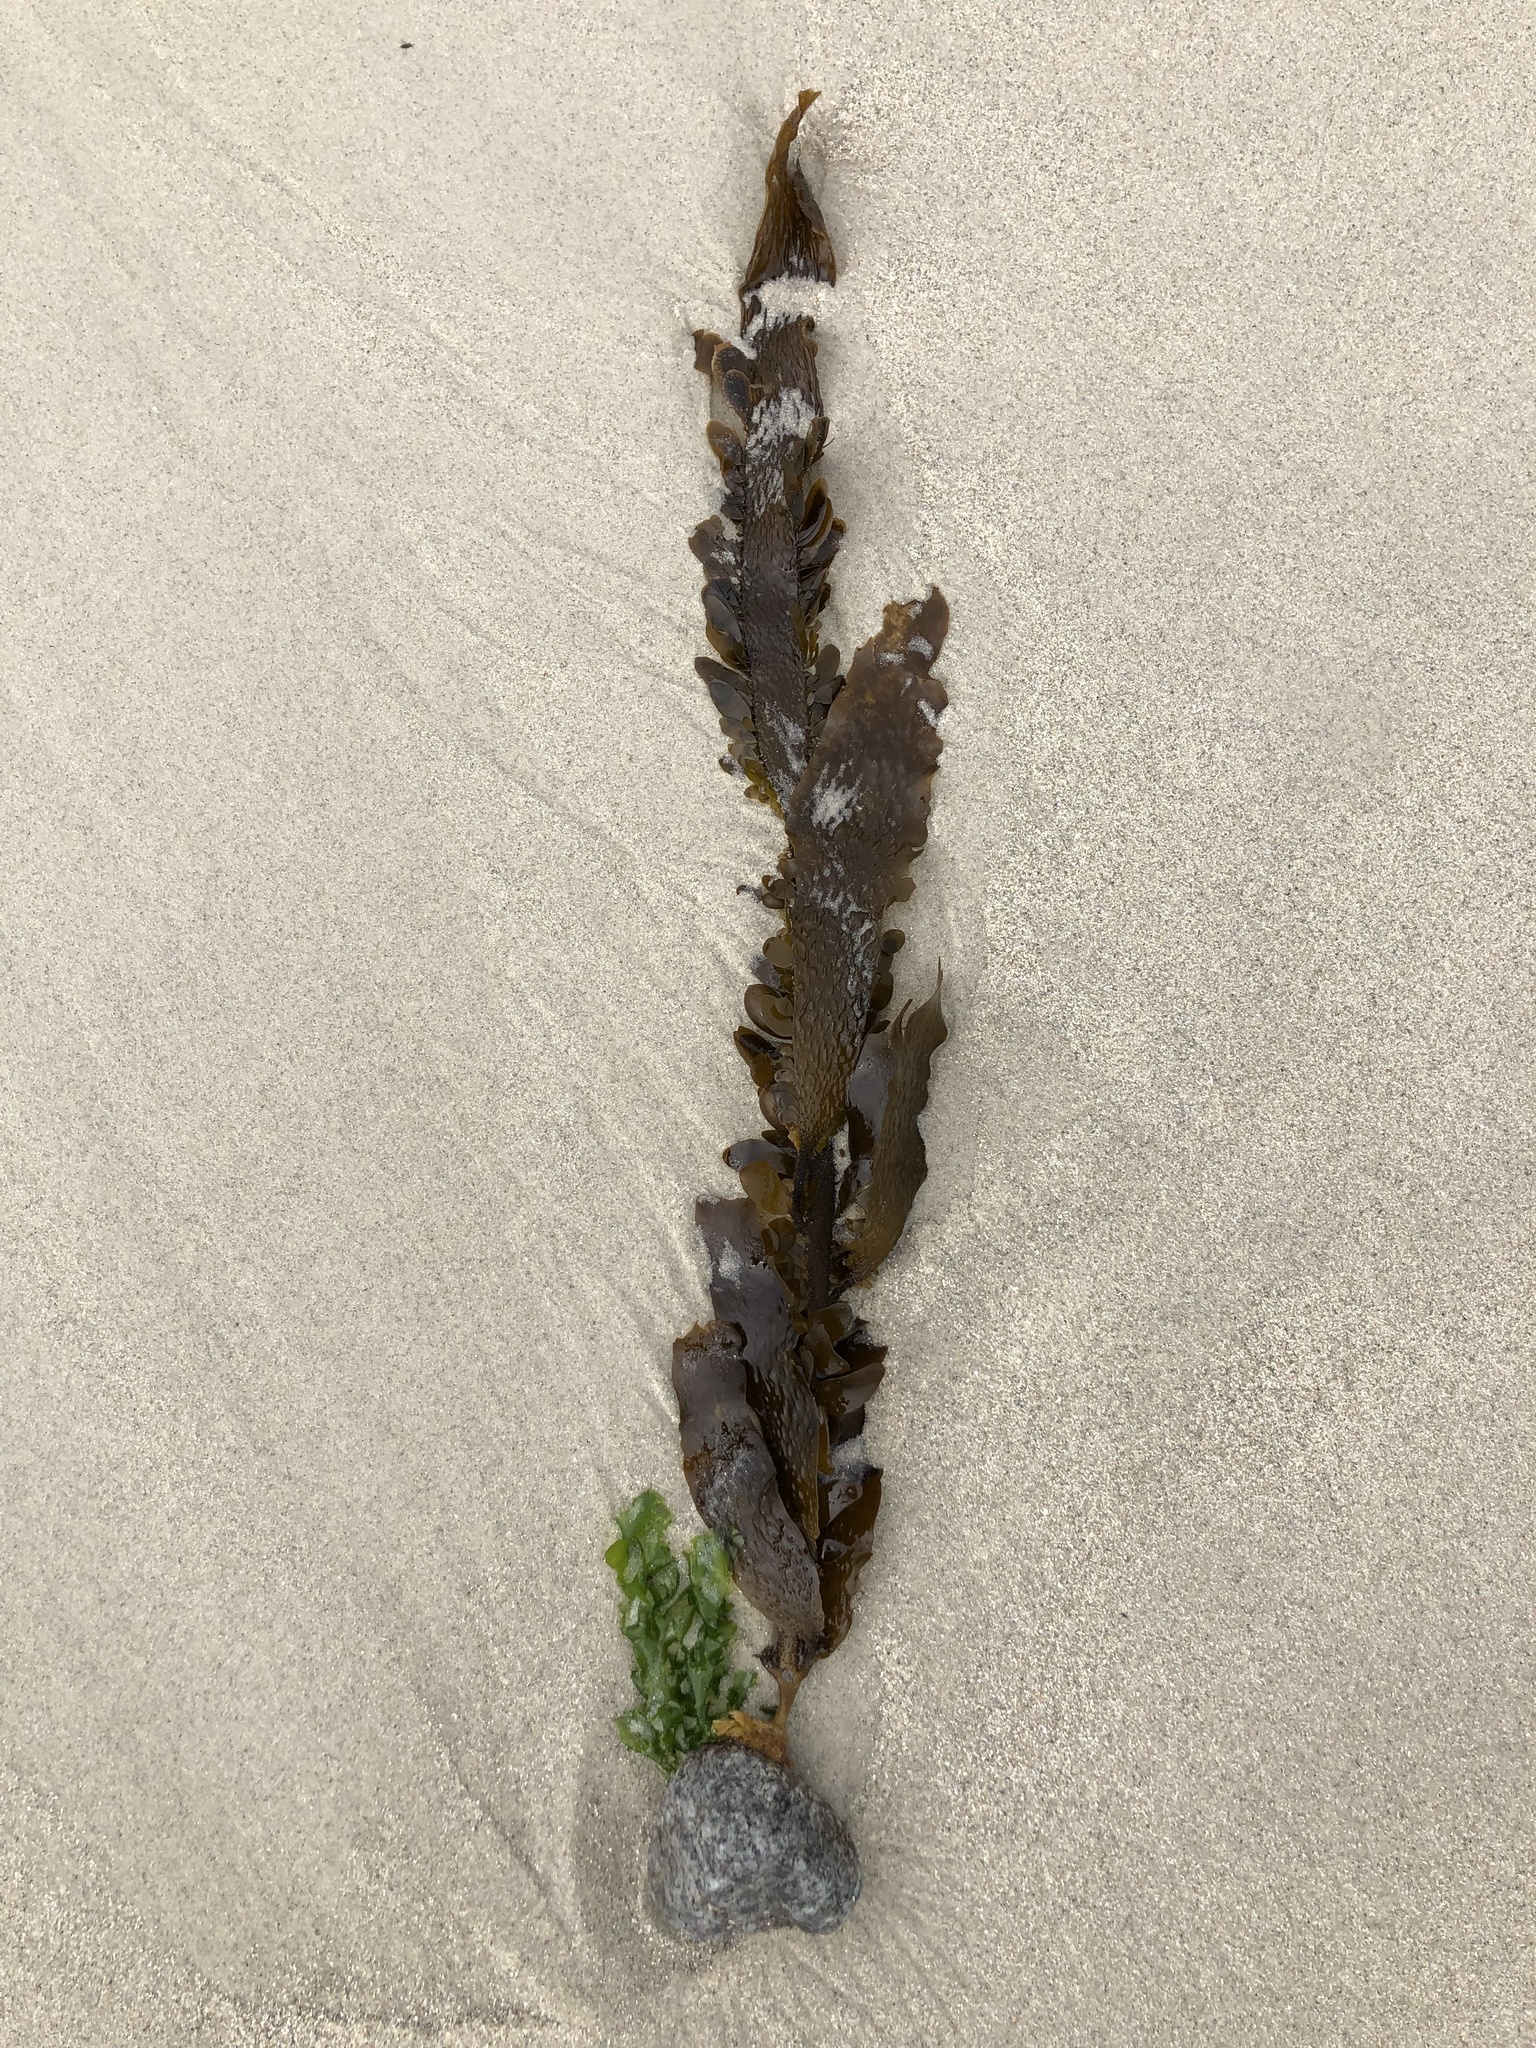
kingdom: Chromista
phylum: Ochrophyta
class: Phaeophyceae
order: Laminariales
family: Lessoniaceae
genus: Egregia
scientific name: Egregia menziesii
